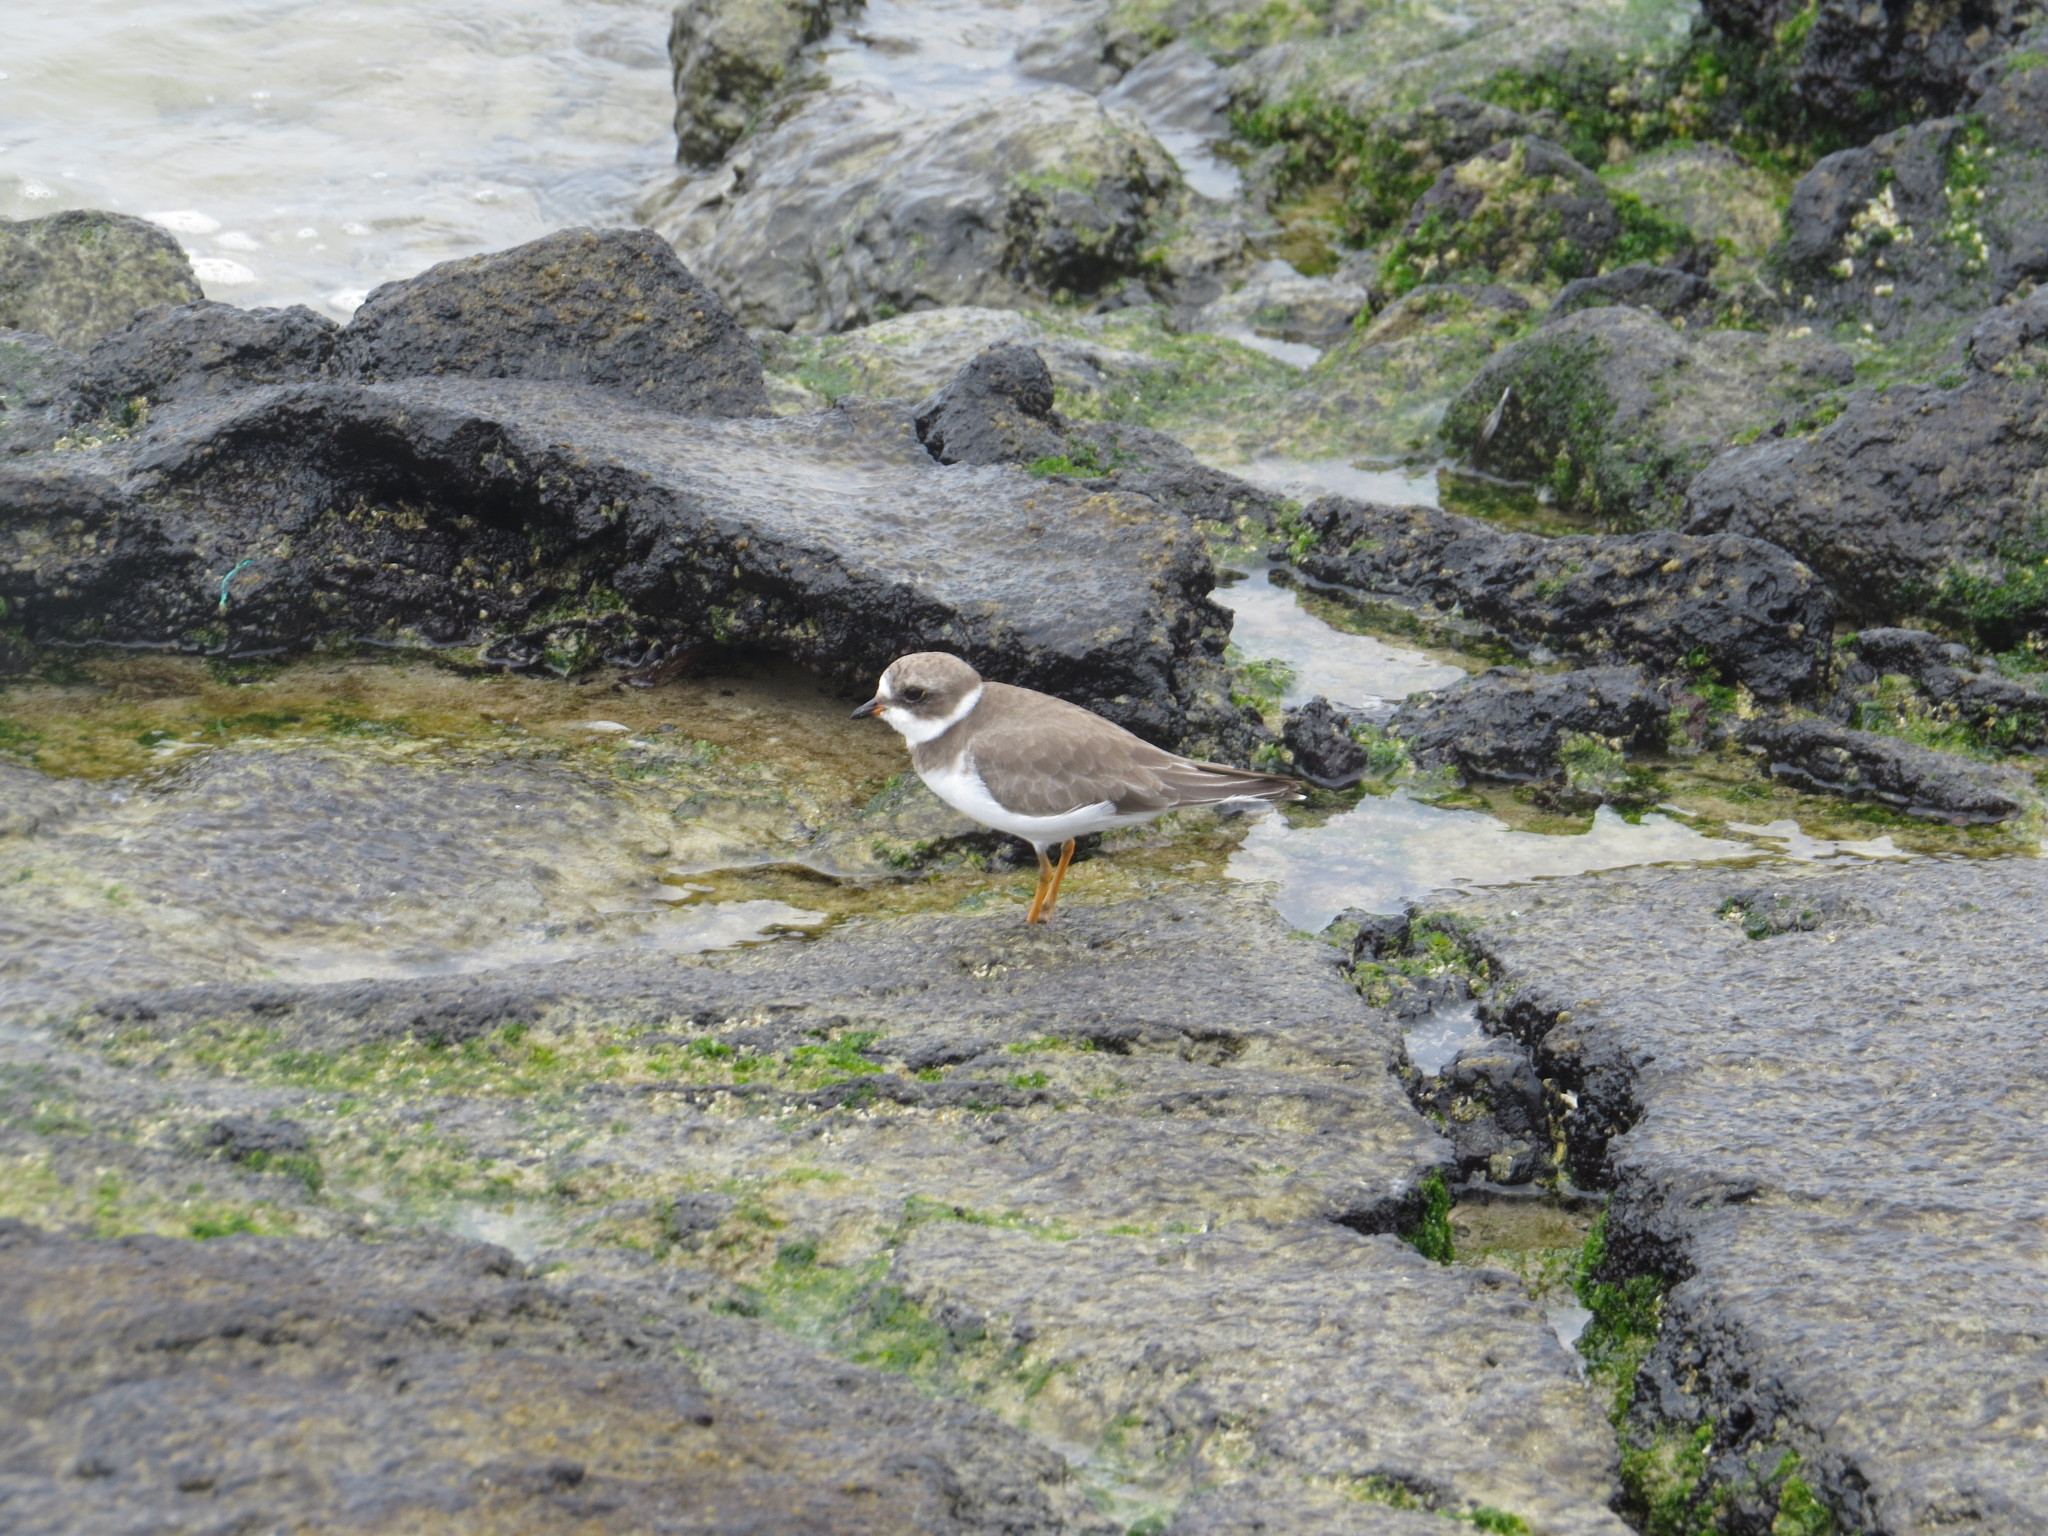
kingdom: Animalia
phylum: Chordata
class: Aves
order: Charadriiformes
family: Charadriidae
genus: Charadrius
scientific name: Charadrius semipalmatus
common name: Semipalmated plover
